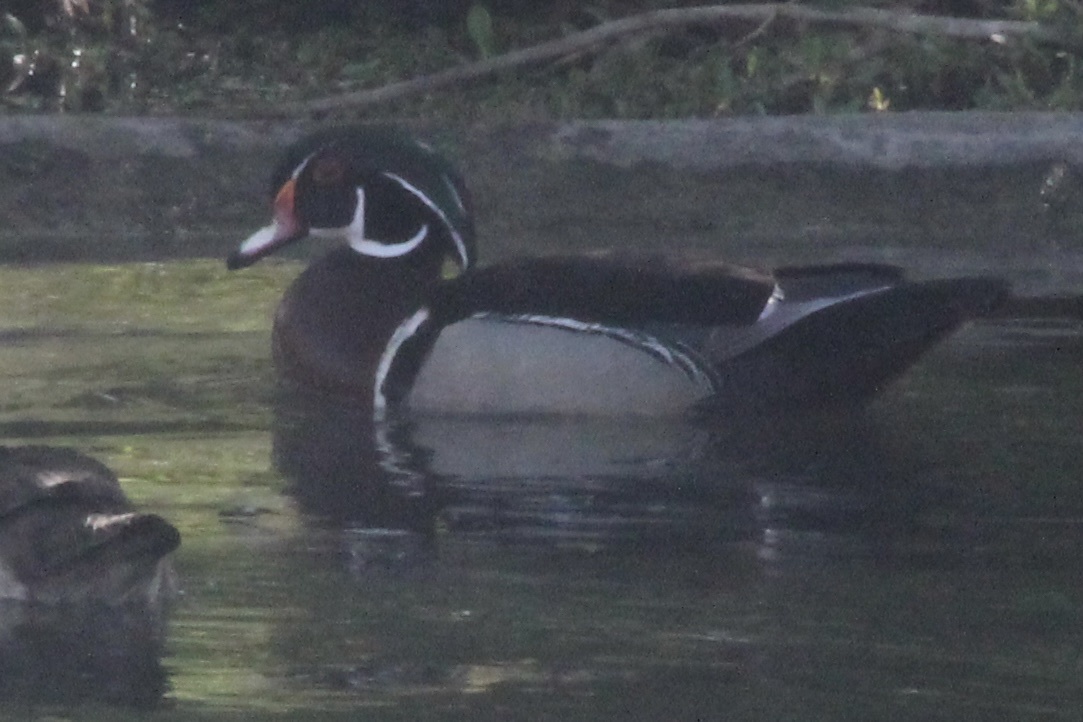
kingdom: Animalia
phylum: Chordata
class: Aves
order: Anseriformes
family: Anatidae
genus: Aix
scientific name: Aix sponsa
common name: Wood duck
